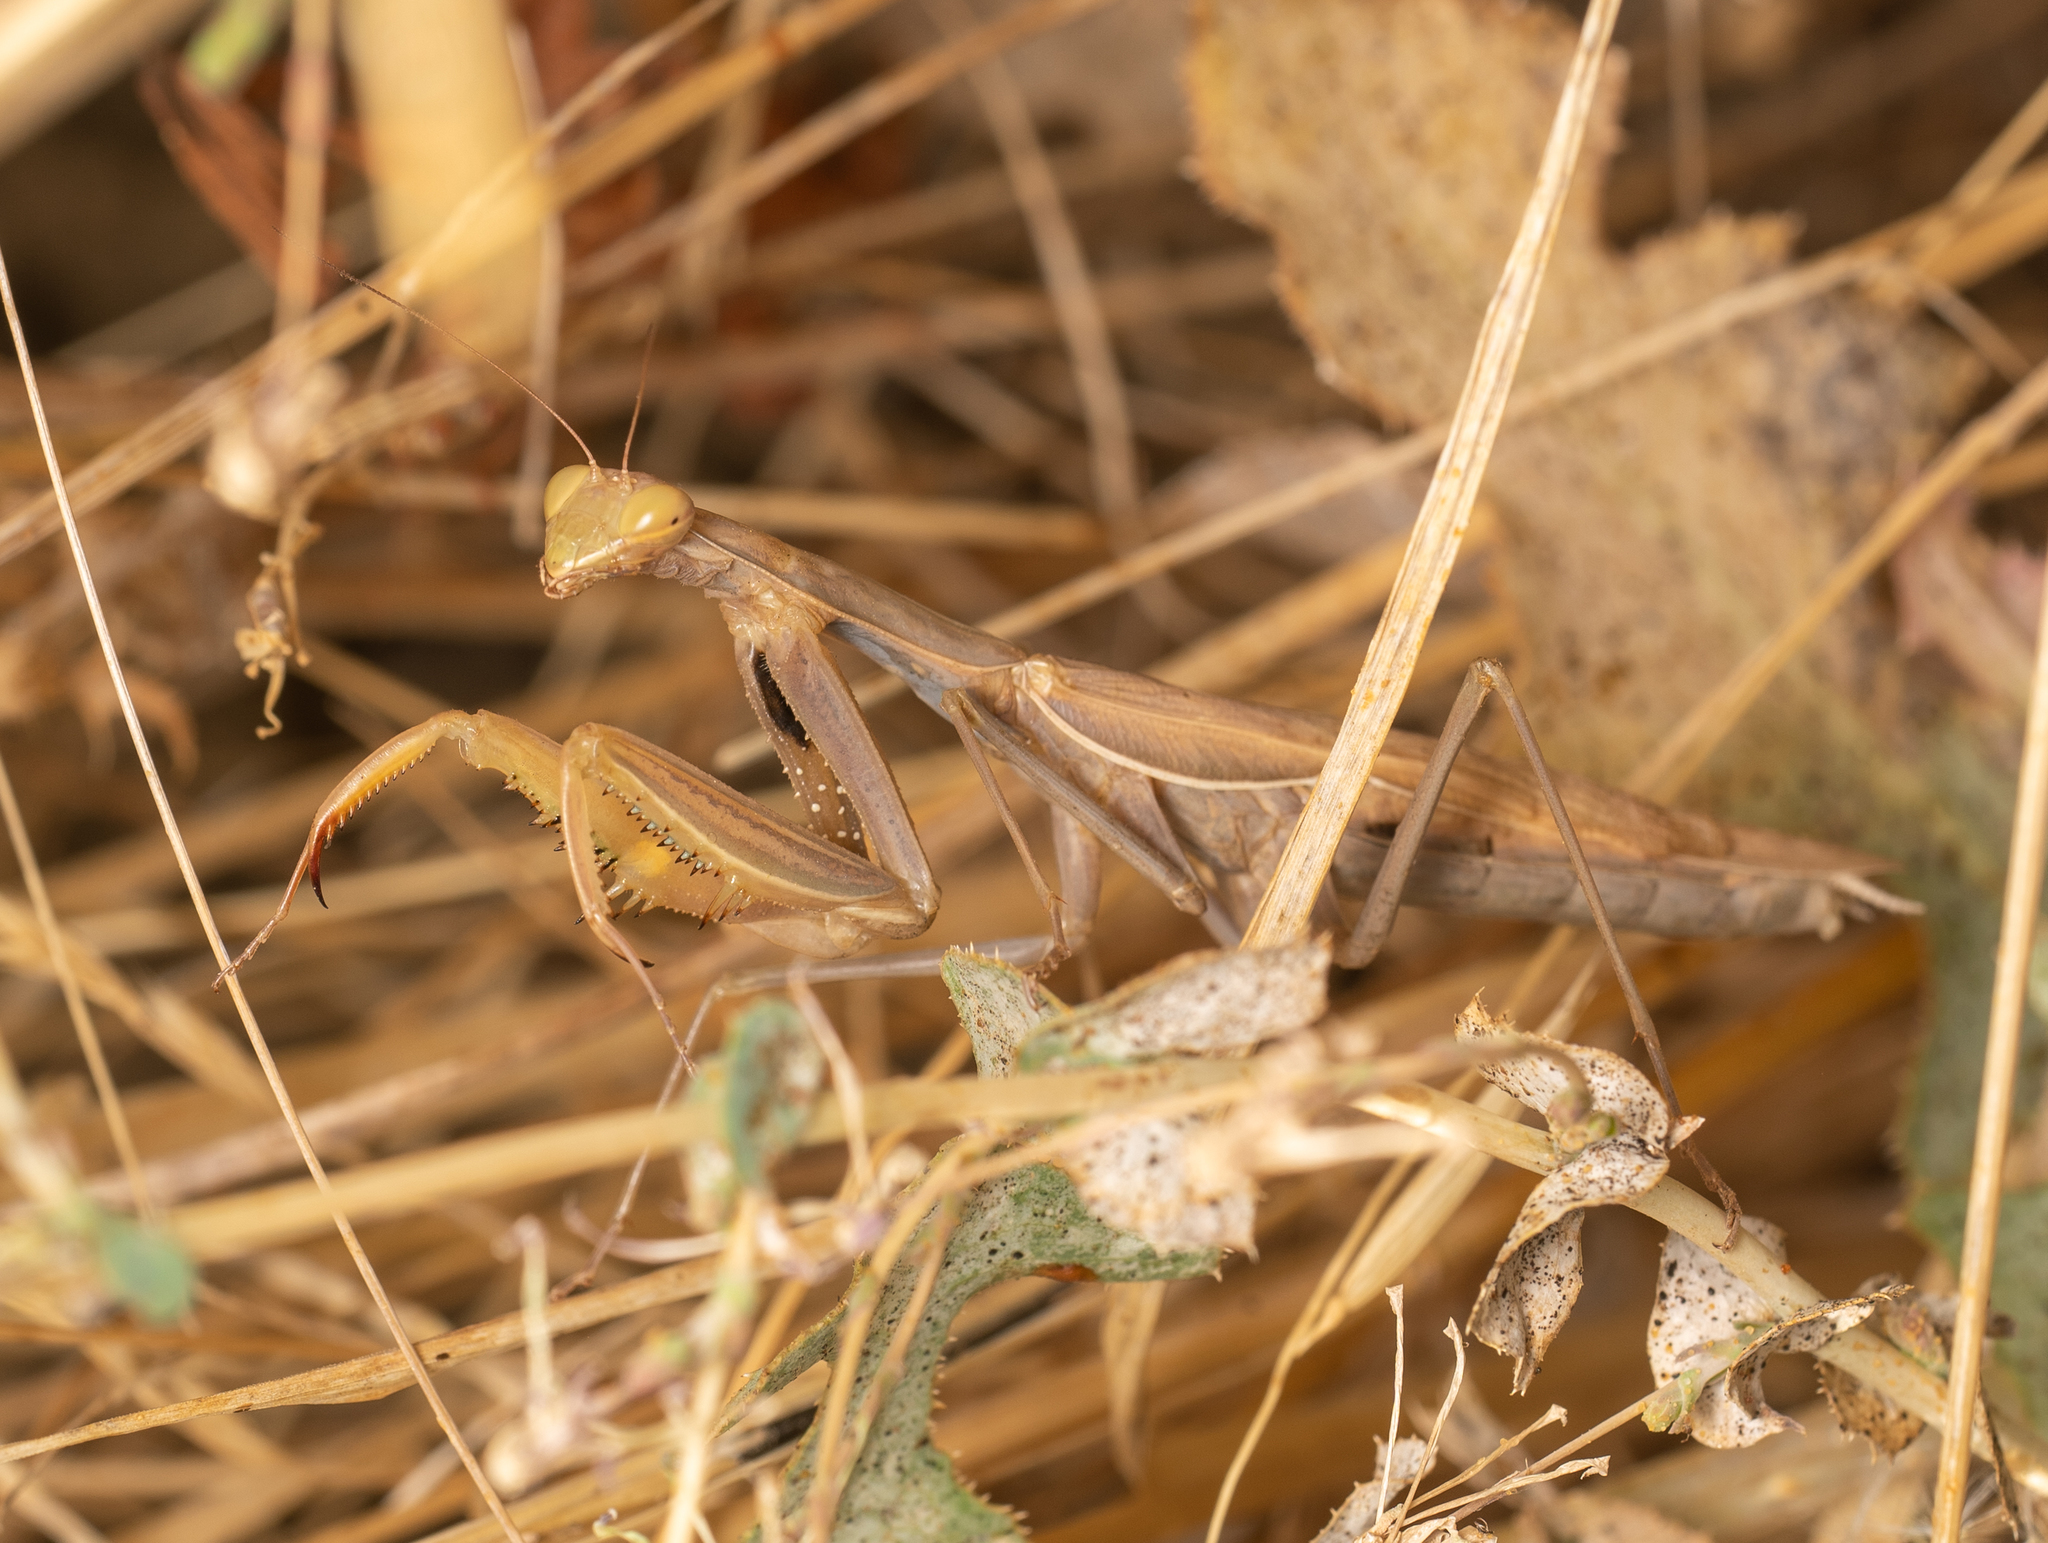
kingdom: Animalia
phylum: Arthropoda
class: Insecta
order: Mantodea
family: Mantidae
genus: Mantis
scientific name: Mantis religiosa
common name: Praying mantis
